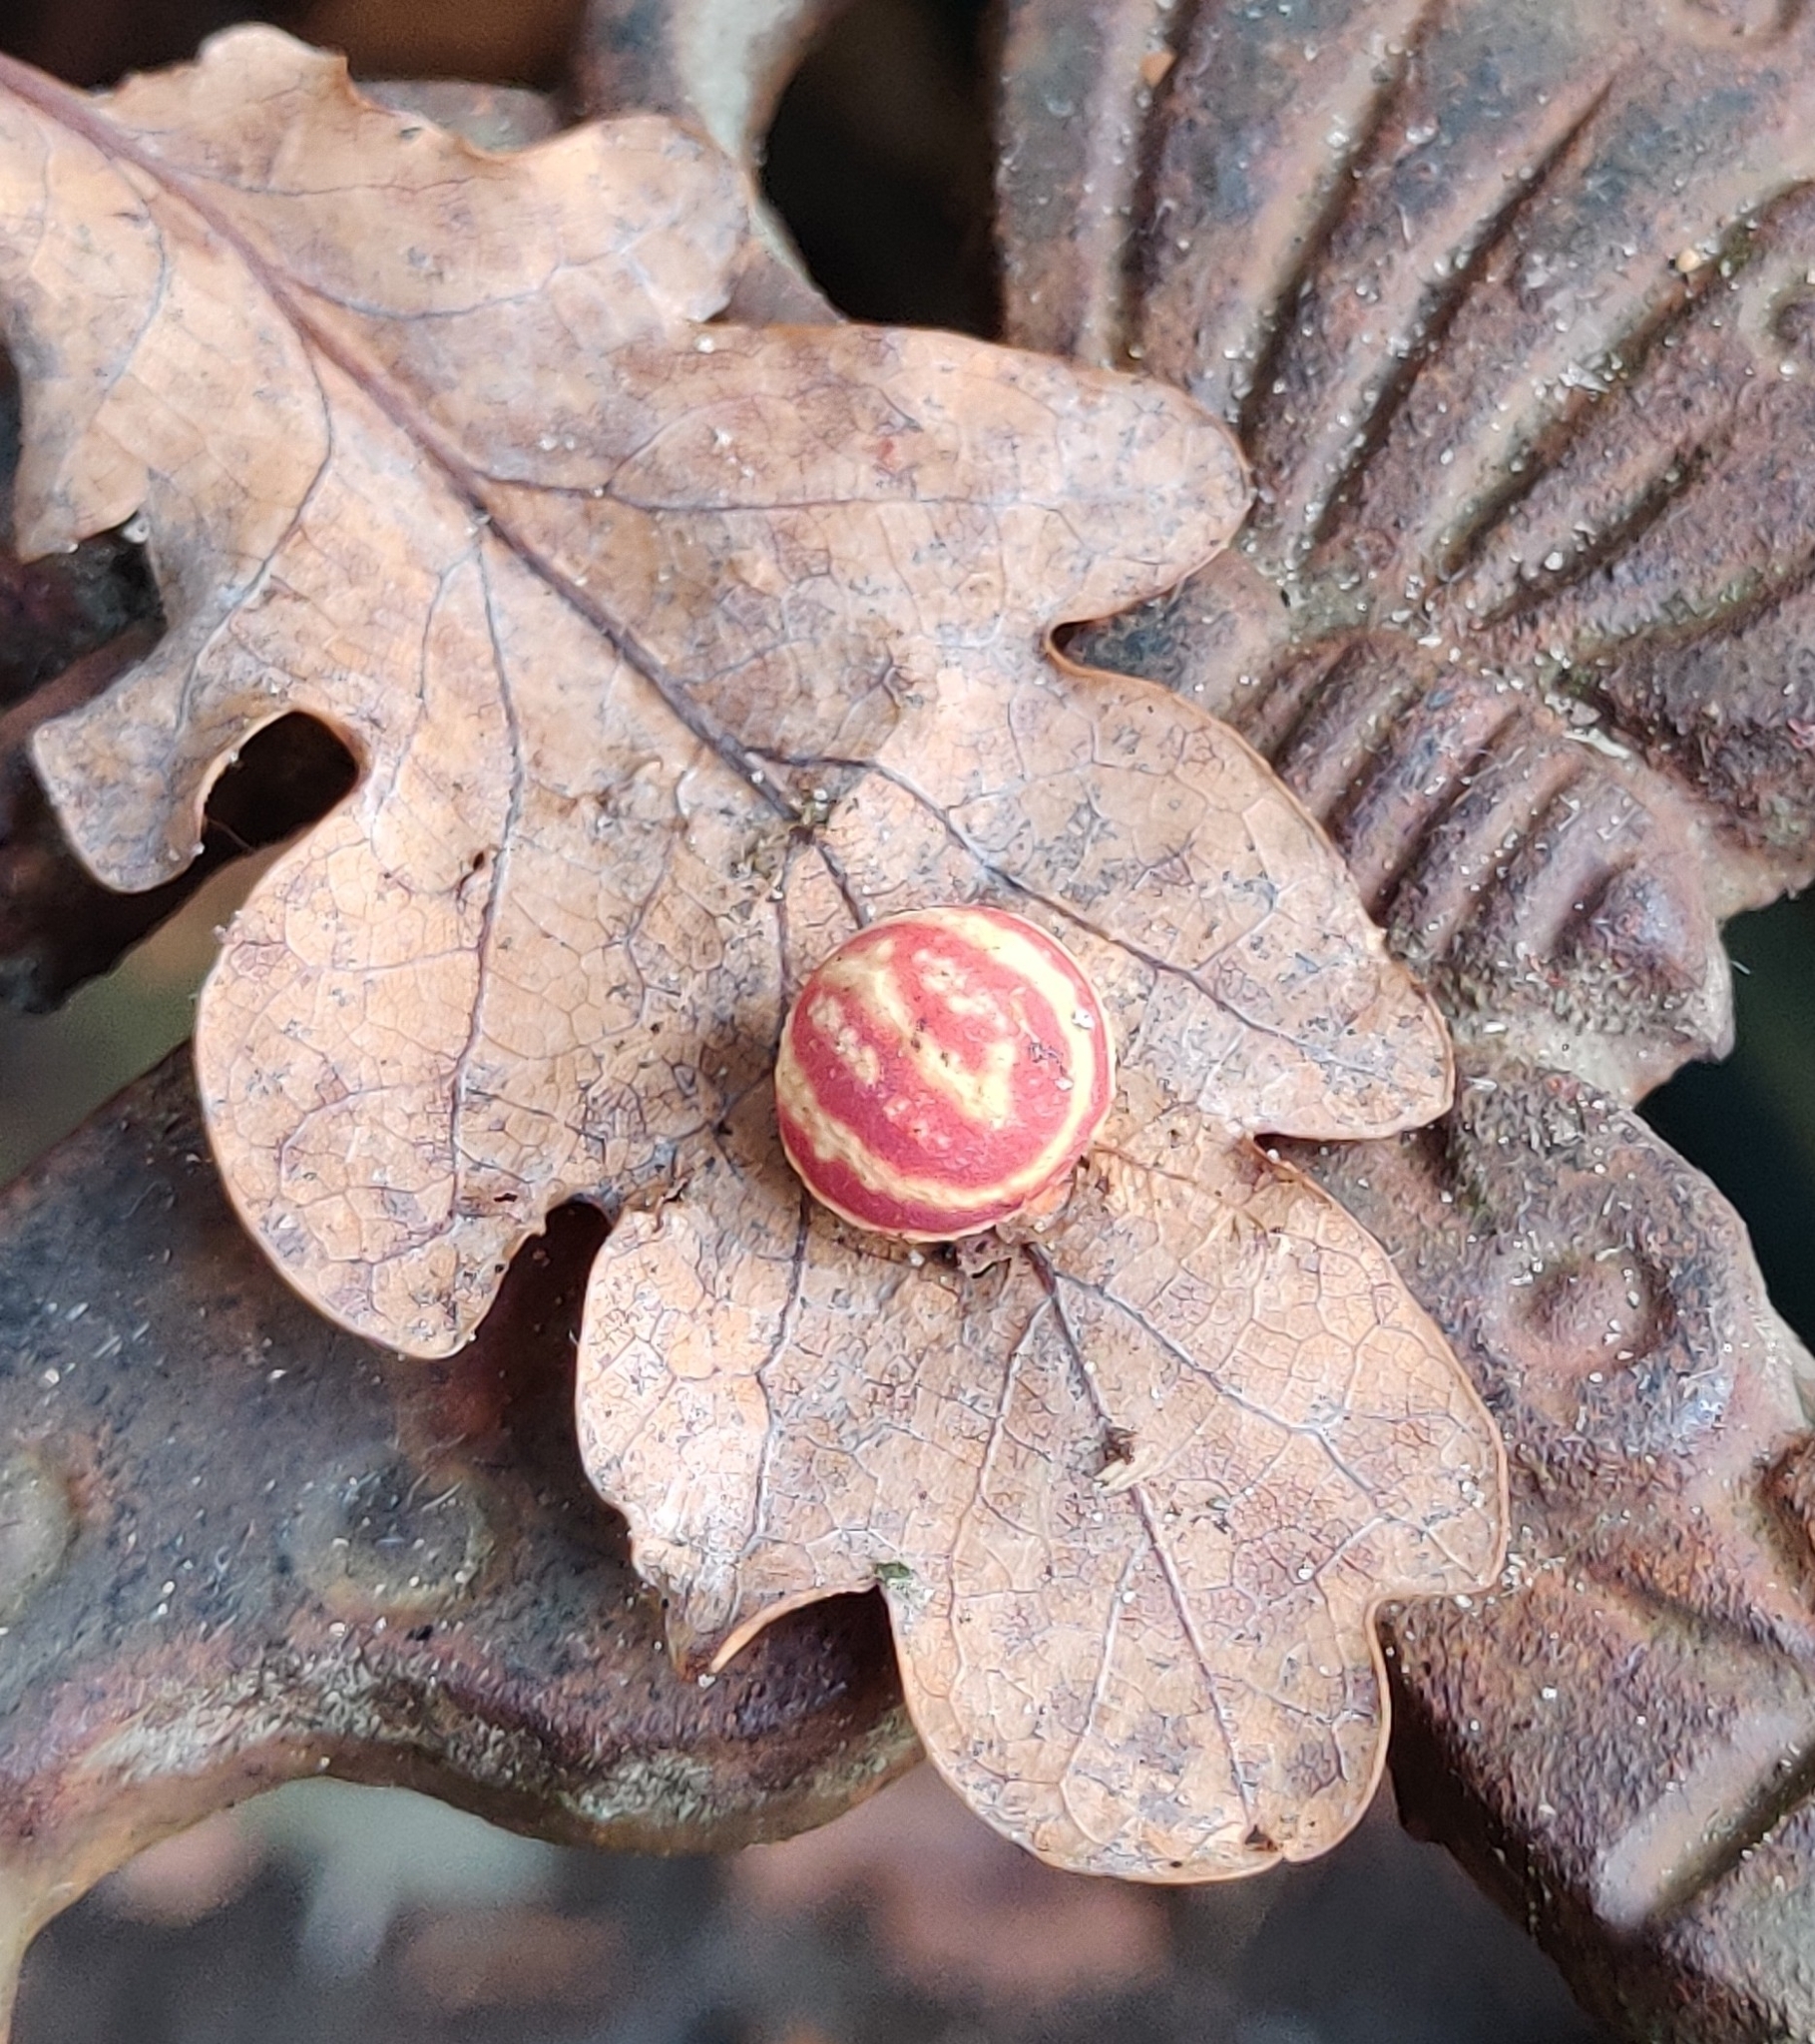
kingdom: Animalia
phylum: Arthropoda
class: Insecta
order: Hymenoptera
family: Cynipidae
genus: Cynips
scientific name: Cynips longiventris
